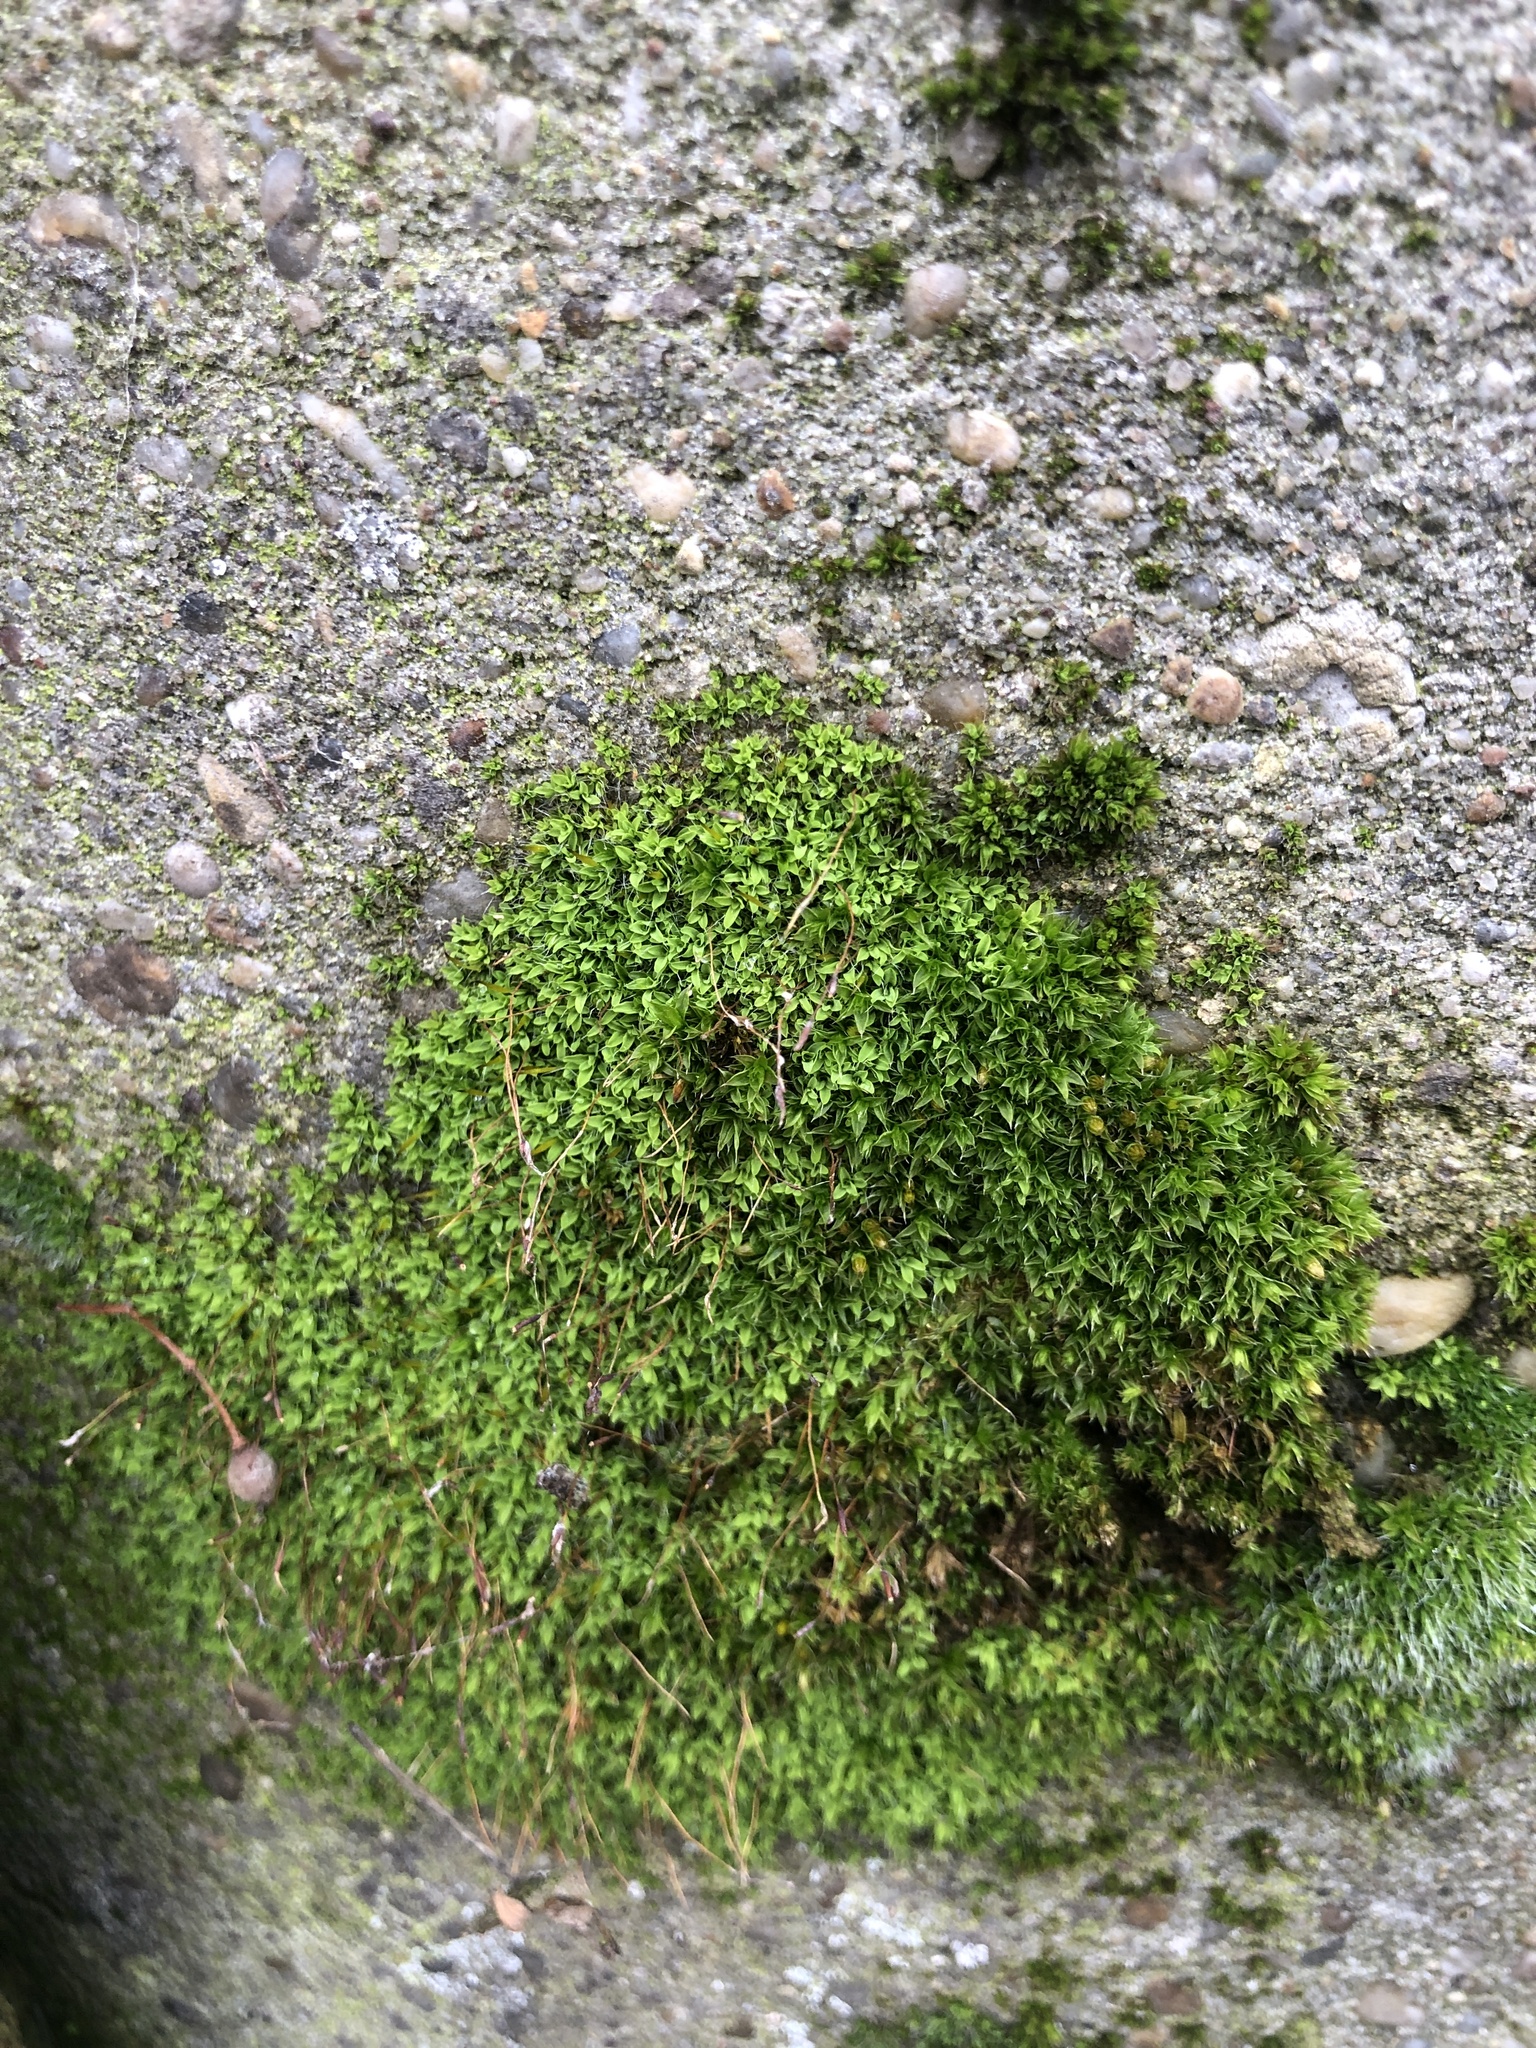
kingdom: Plantae
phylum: Bryophyta
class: Bryopsida
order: Pottiales
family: Pottiaceae
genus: Tortula
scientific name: Tortula muralis
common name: Wall screw-moss
